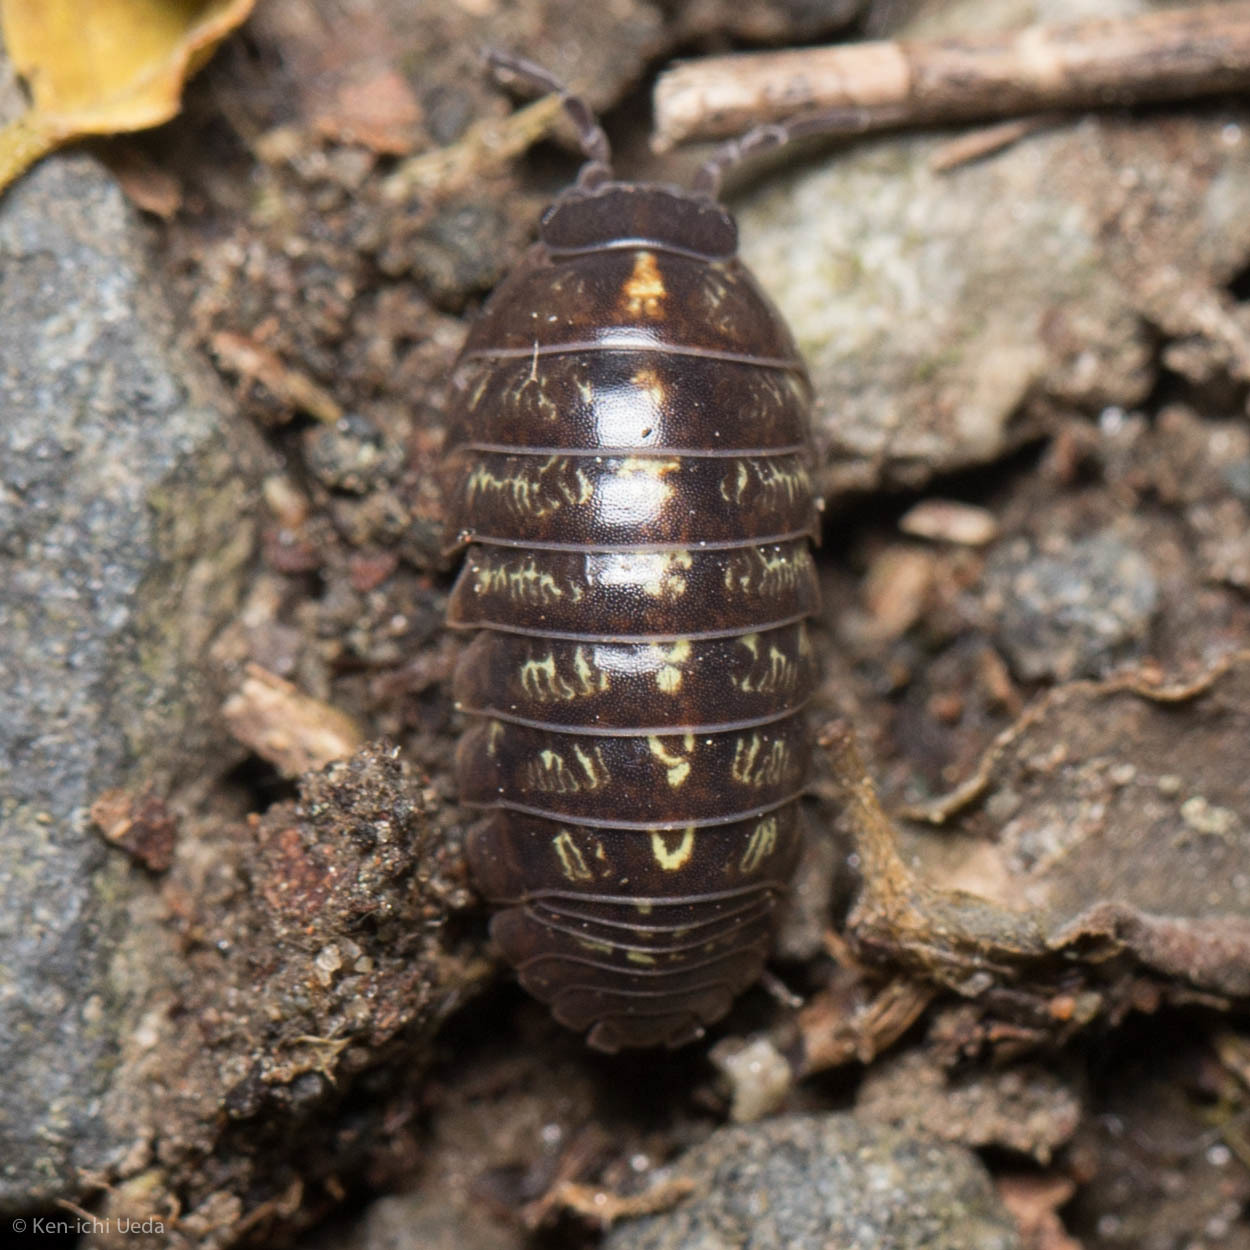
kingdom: Animalia
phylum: Arthropoda
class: Malacostraca
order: Isopoda
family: Armadillidiidae
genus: Armadillidium
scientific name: Armadillidium vulgare
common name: Common pill woodlouse
